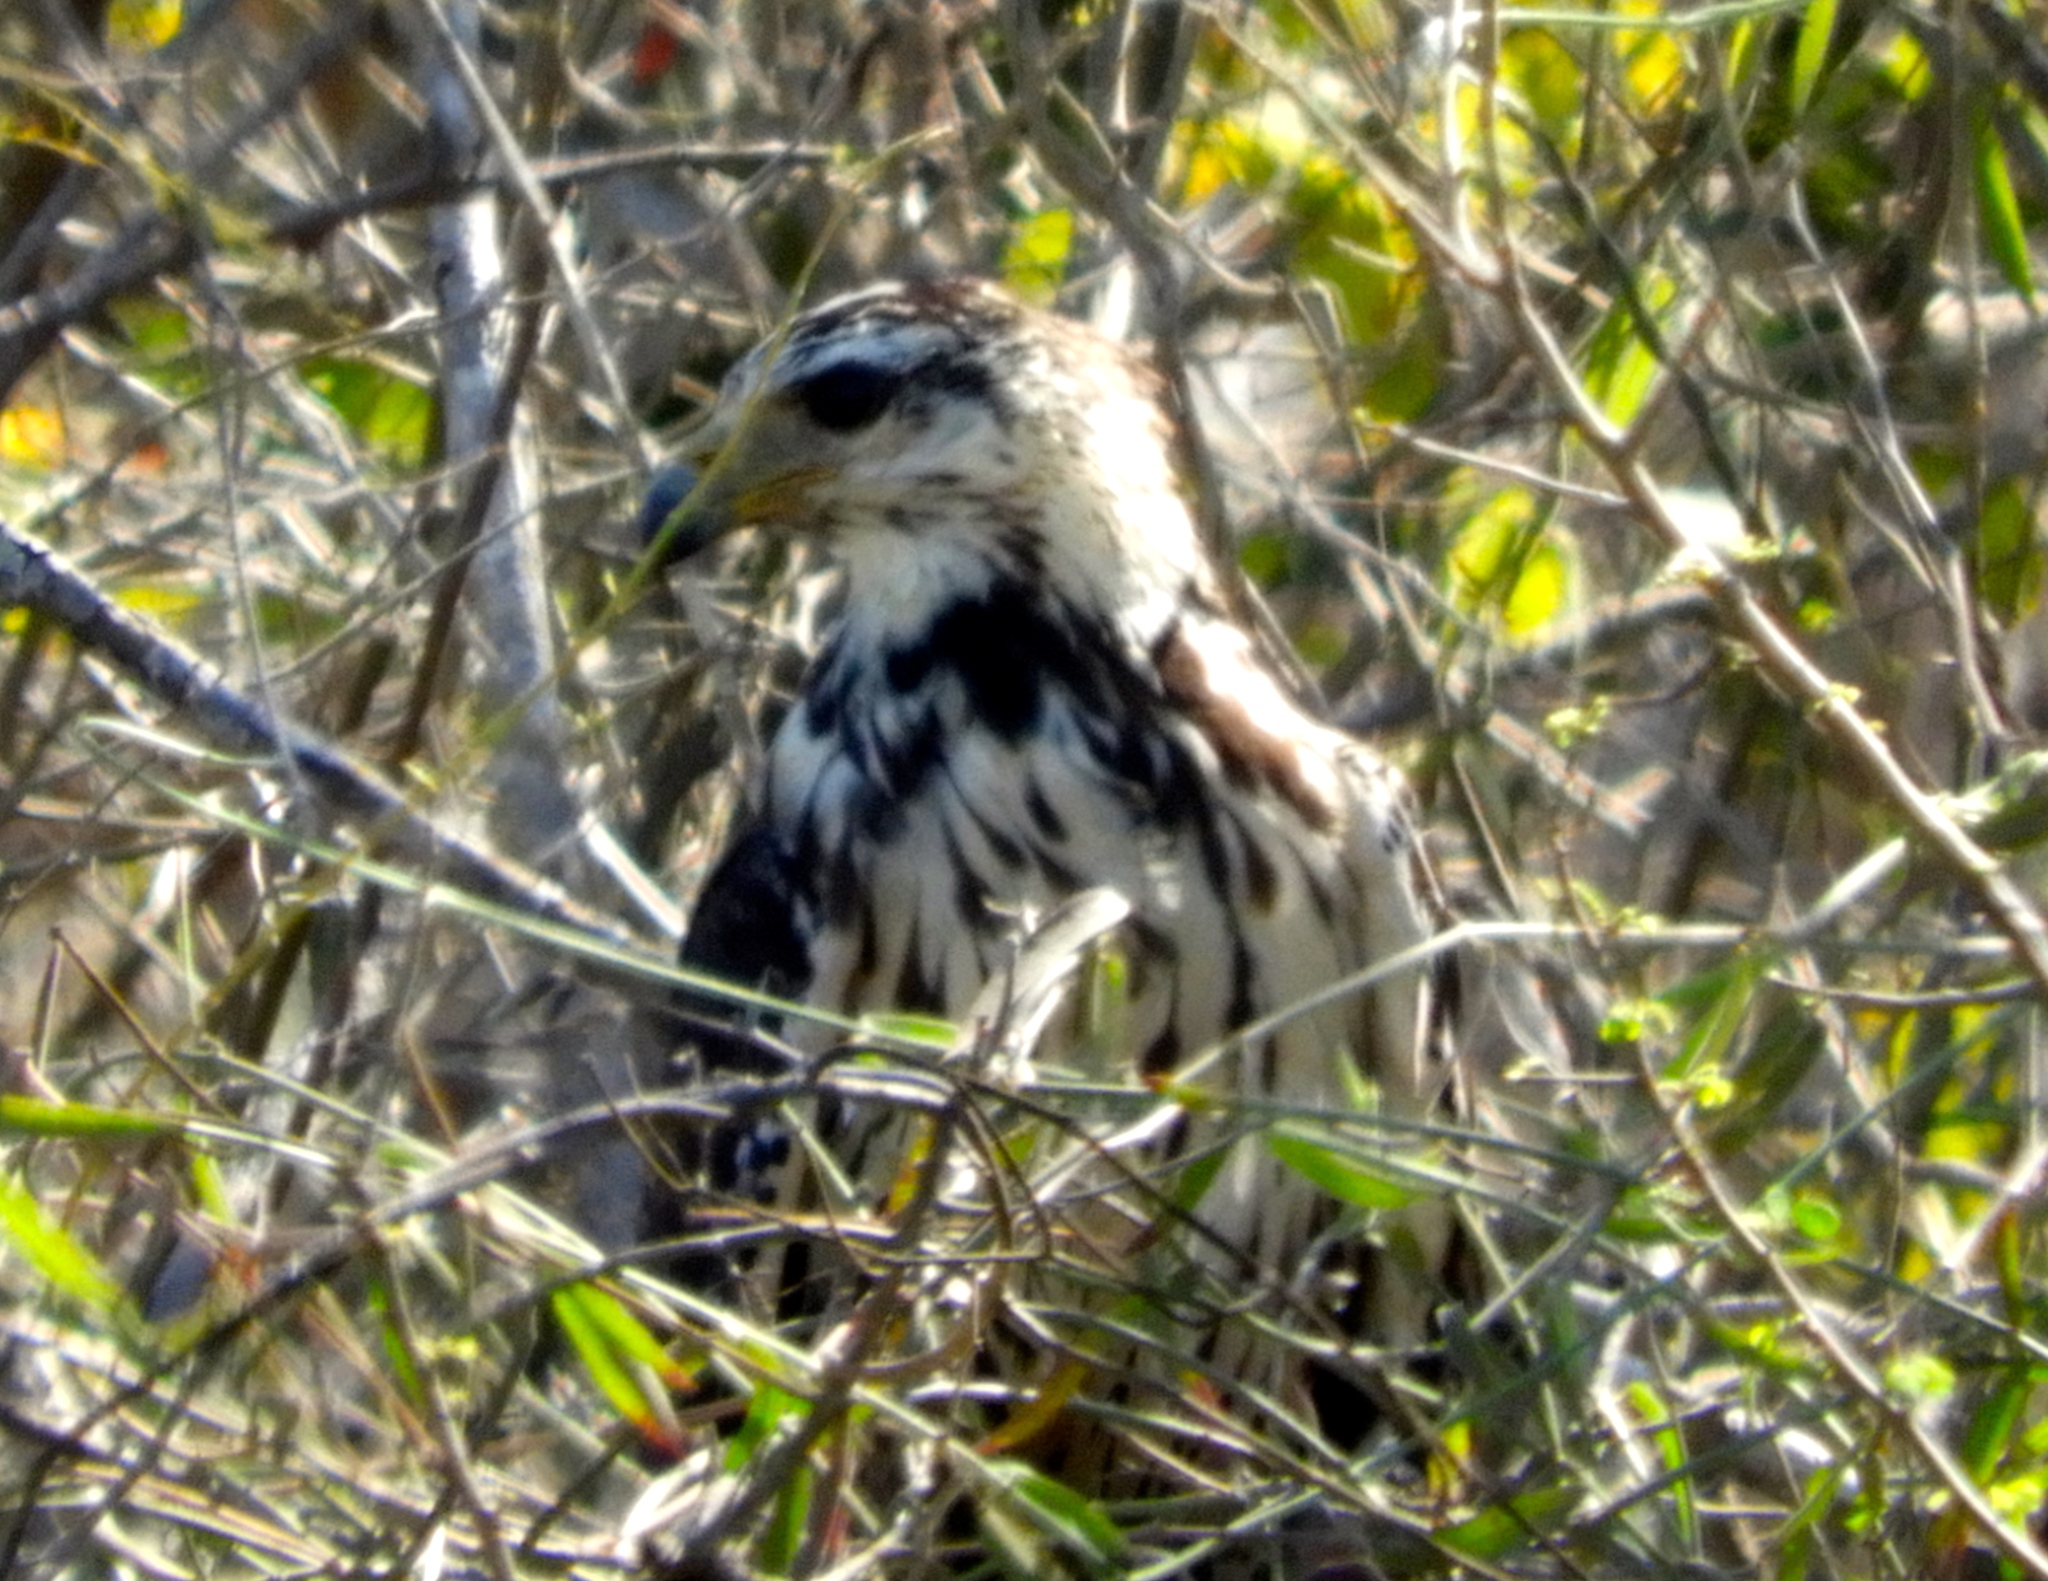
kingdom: Animalia
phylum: Chordata
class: Aves
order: Accipitriformes
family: Accipitridae
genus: Buteogallus
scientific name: Buteogallus urubitinga
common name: Great black hawk
